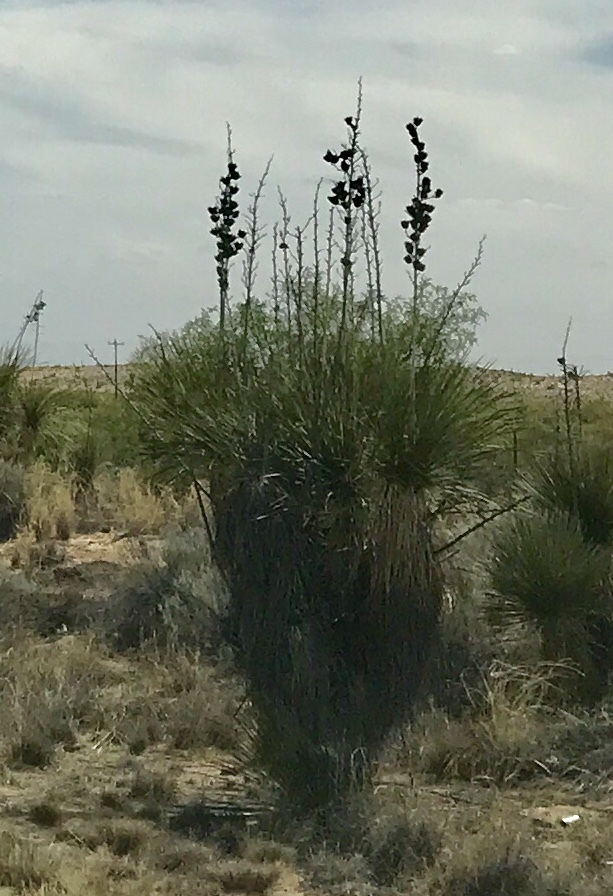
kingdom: Plantae
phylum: Tracheophyta
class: Liliopsida
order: Asparagales
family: Asparagaceae
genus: Yucca
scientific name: Yucca elata
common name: Palmella
